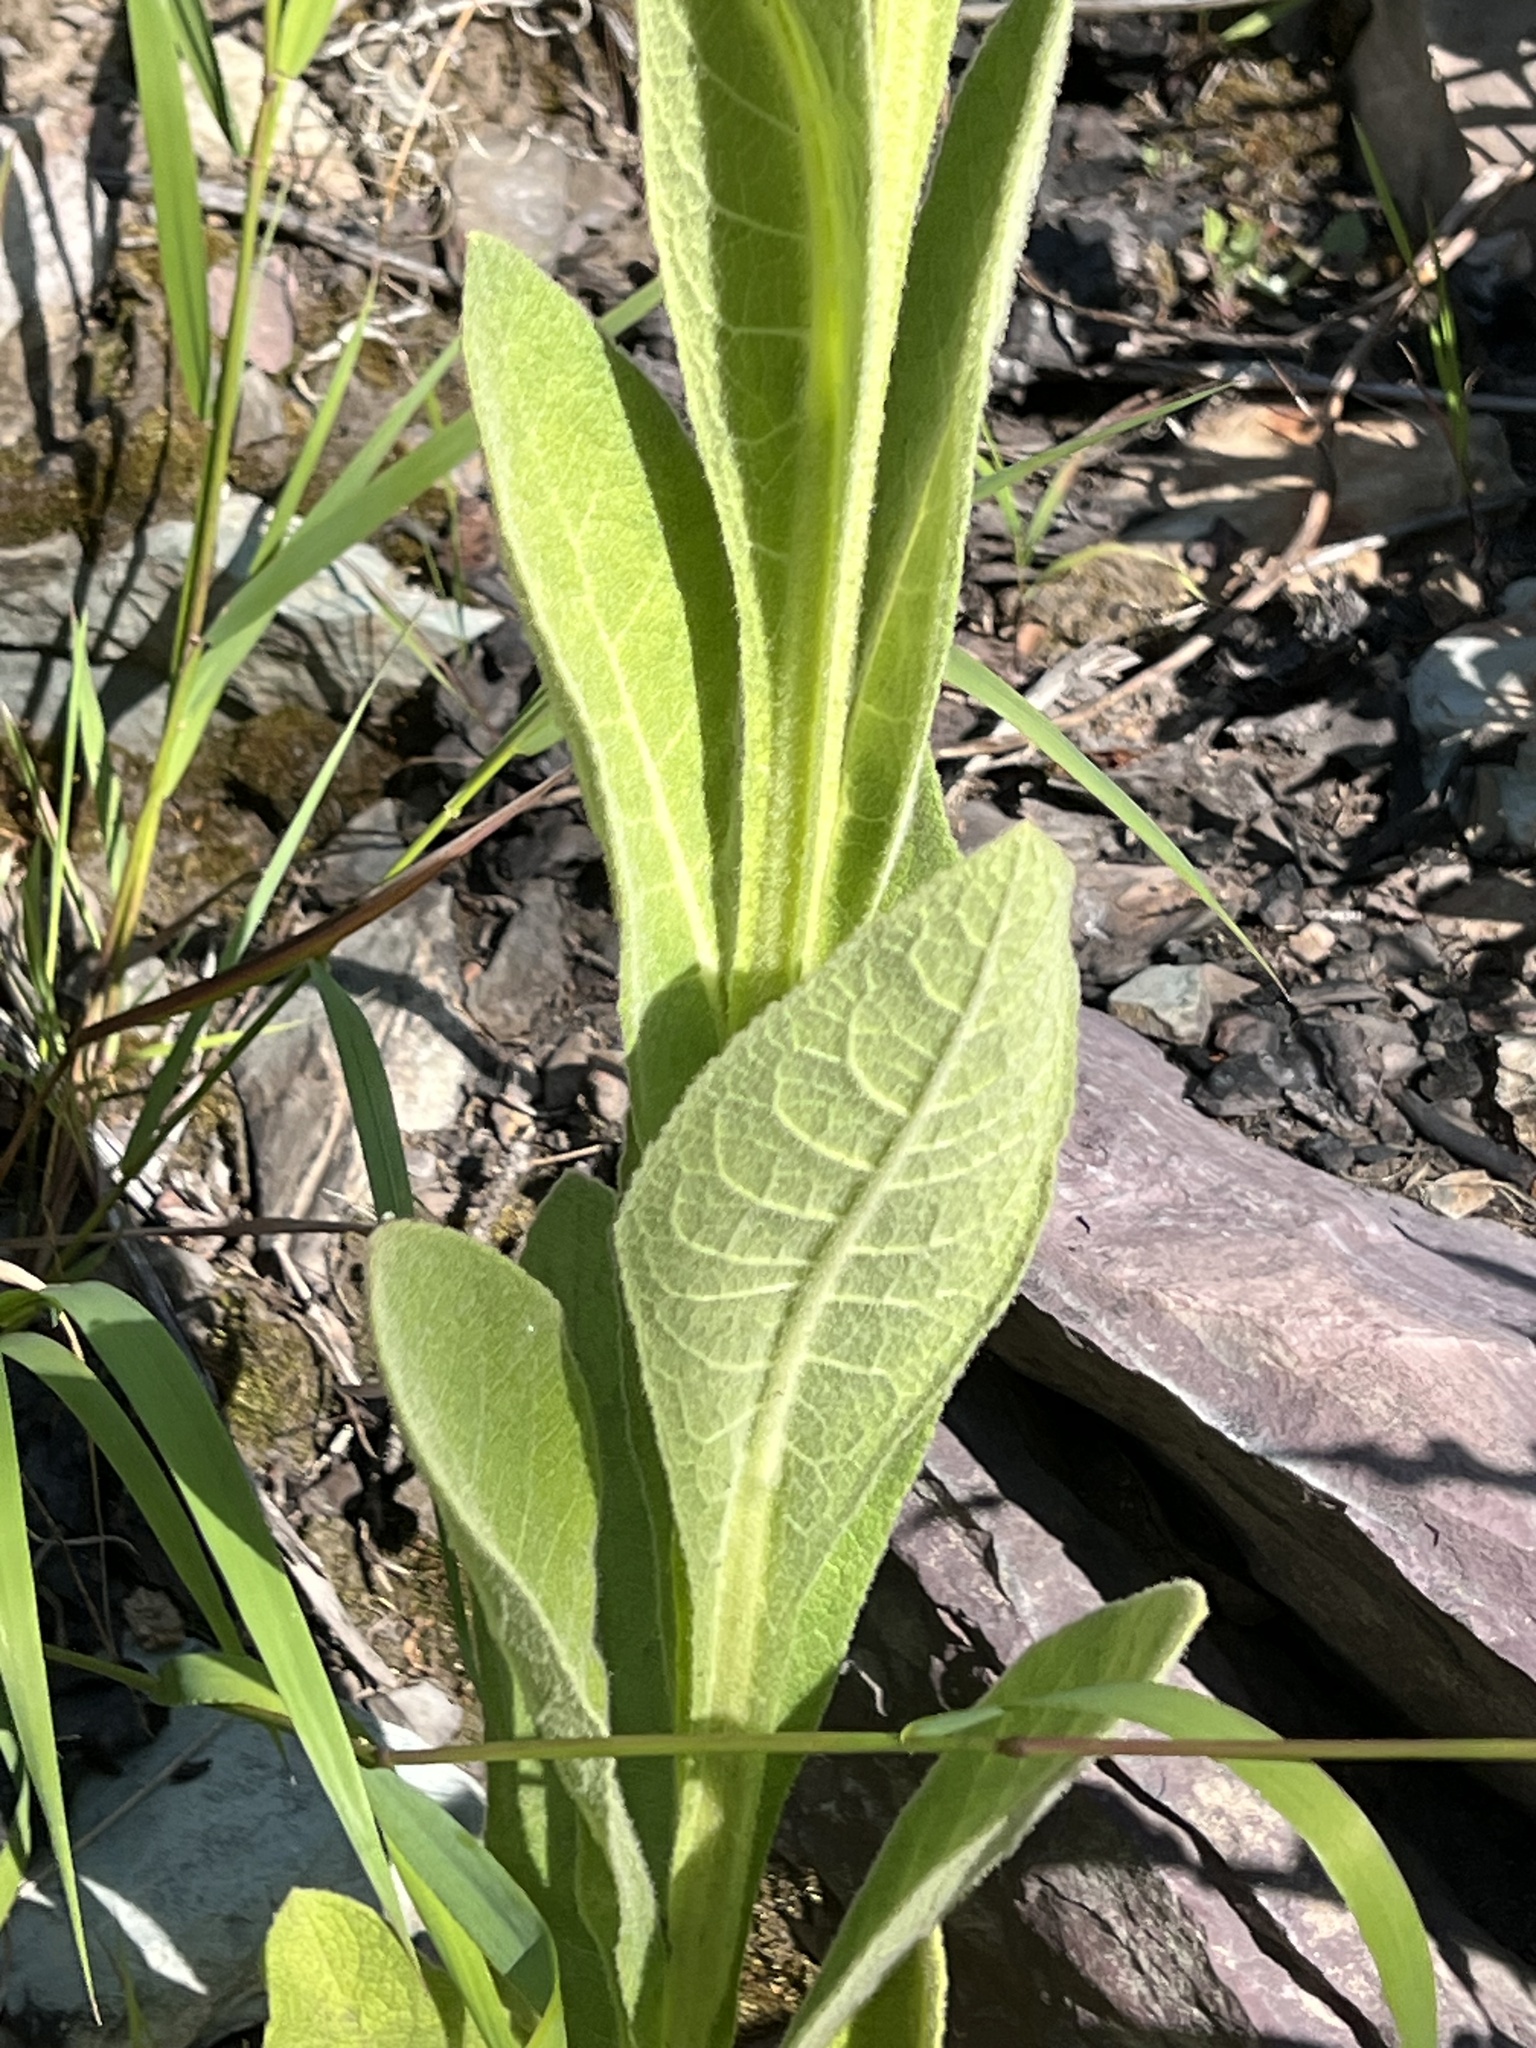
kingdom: Plantae
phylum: Tracheophyta
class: Magnoliopsida
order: Lamiales
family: Scrophulariaceae
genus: Verbascum
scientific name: Verbascum thapsus
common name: Common mullein
